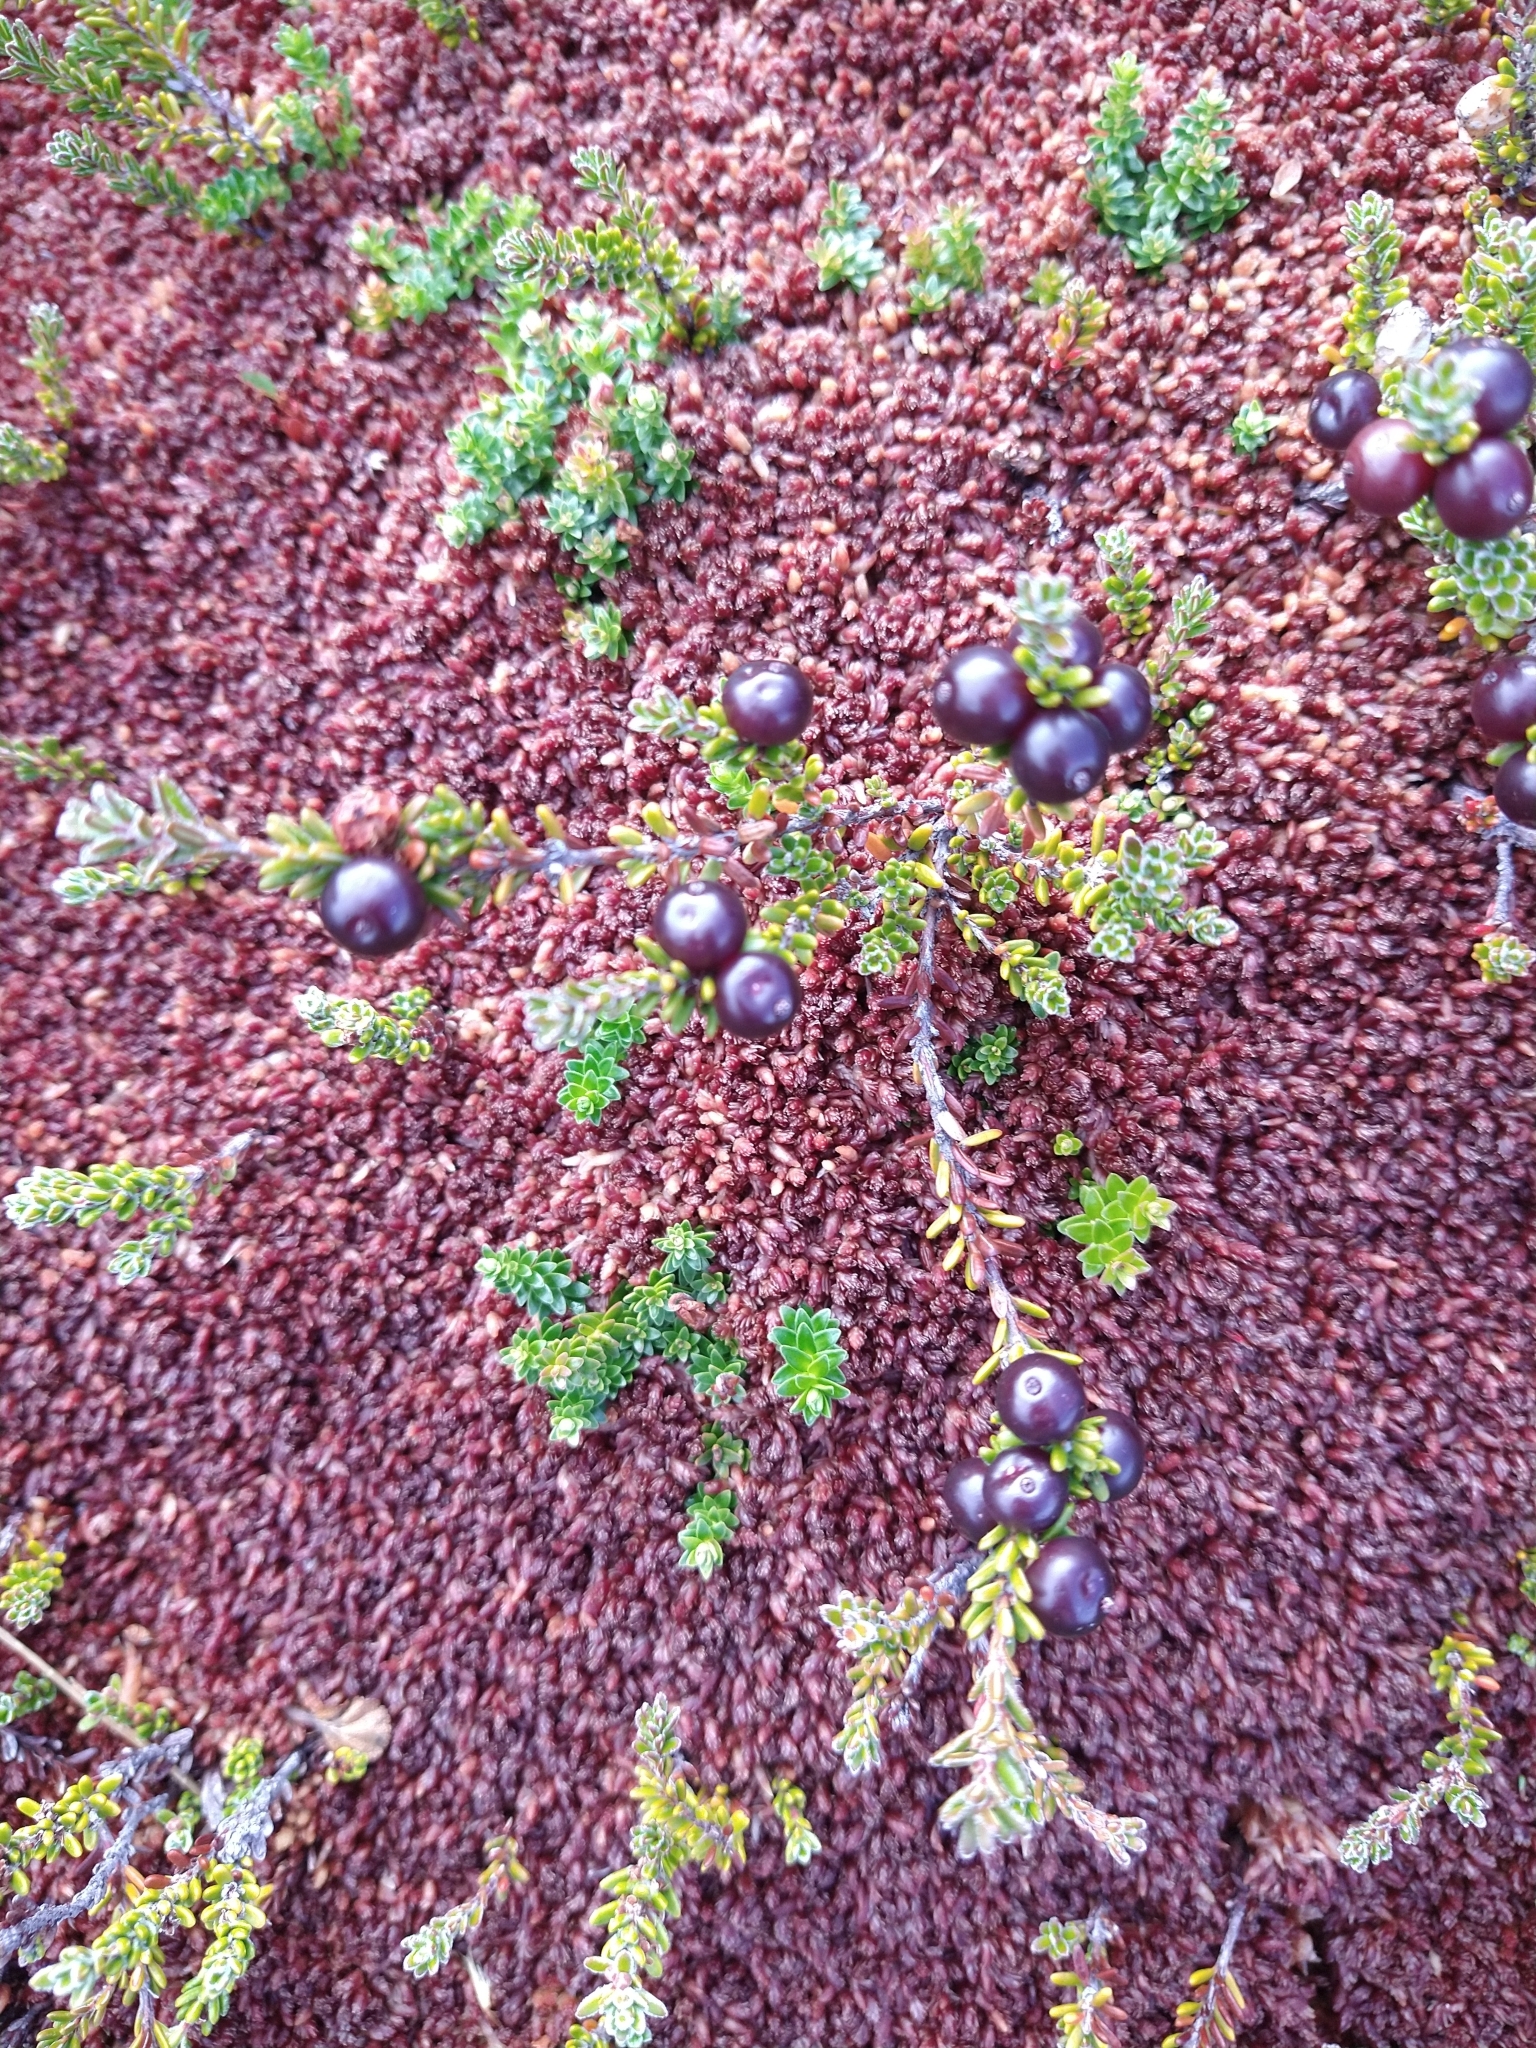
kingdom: Plantae
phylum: Tracheophyta
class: Magnoliopsida
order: Ericales
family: Ericaceae
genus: Gaultheria
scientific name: Gaultheria pumila
